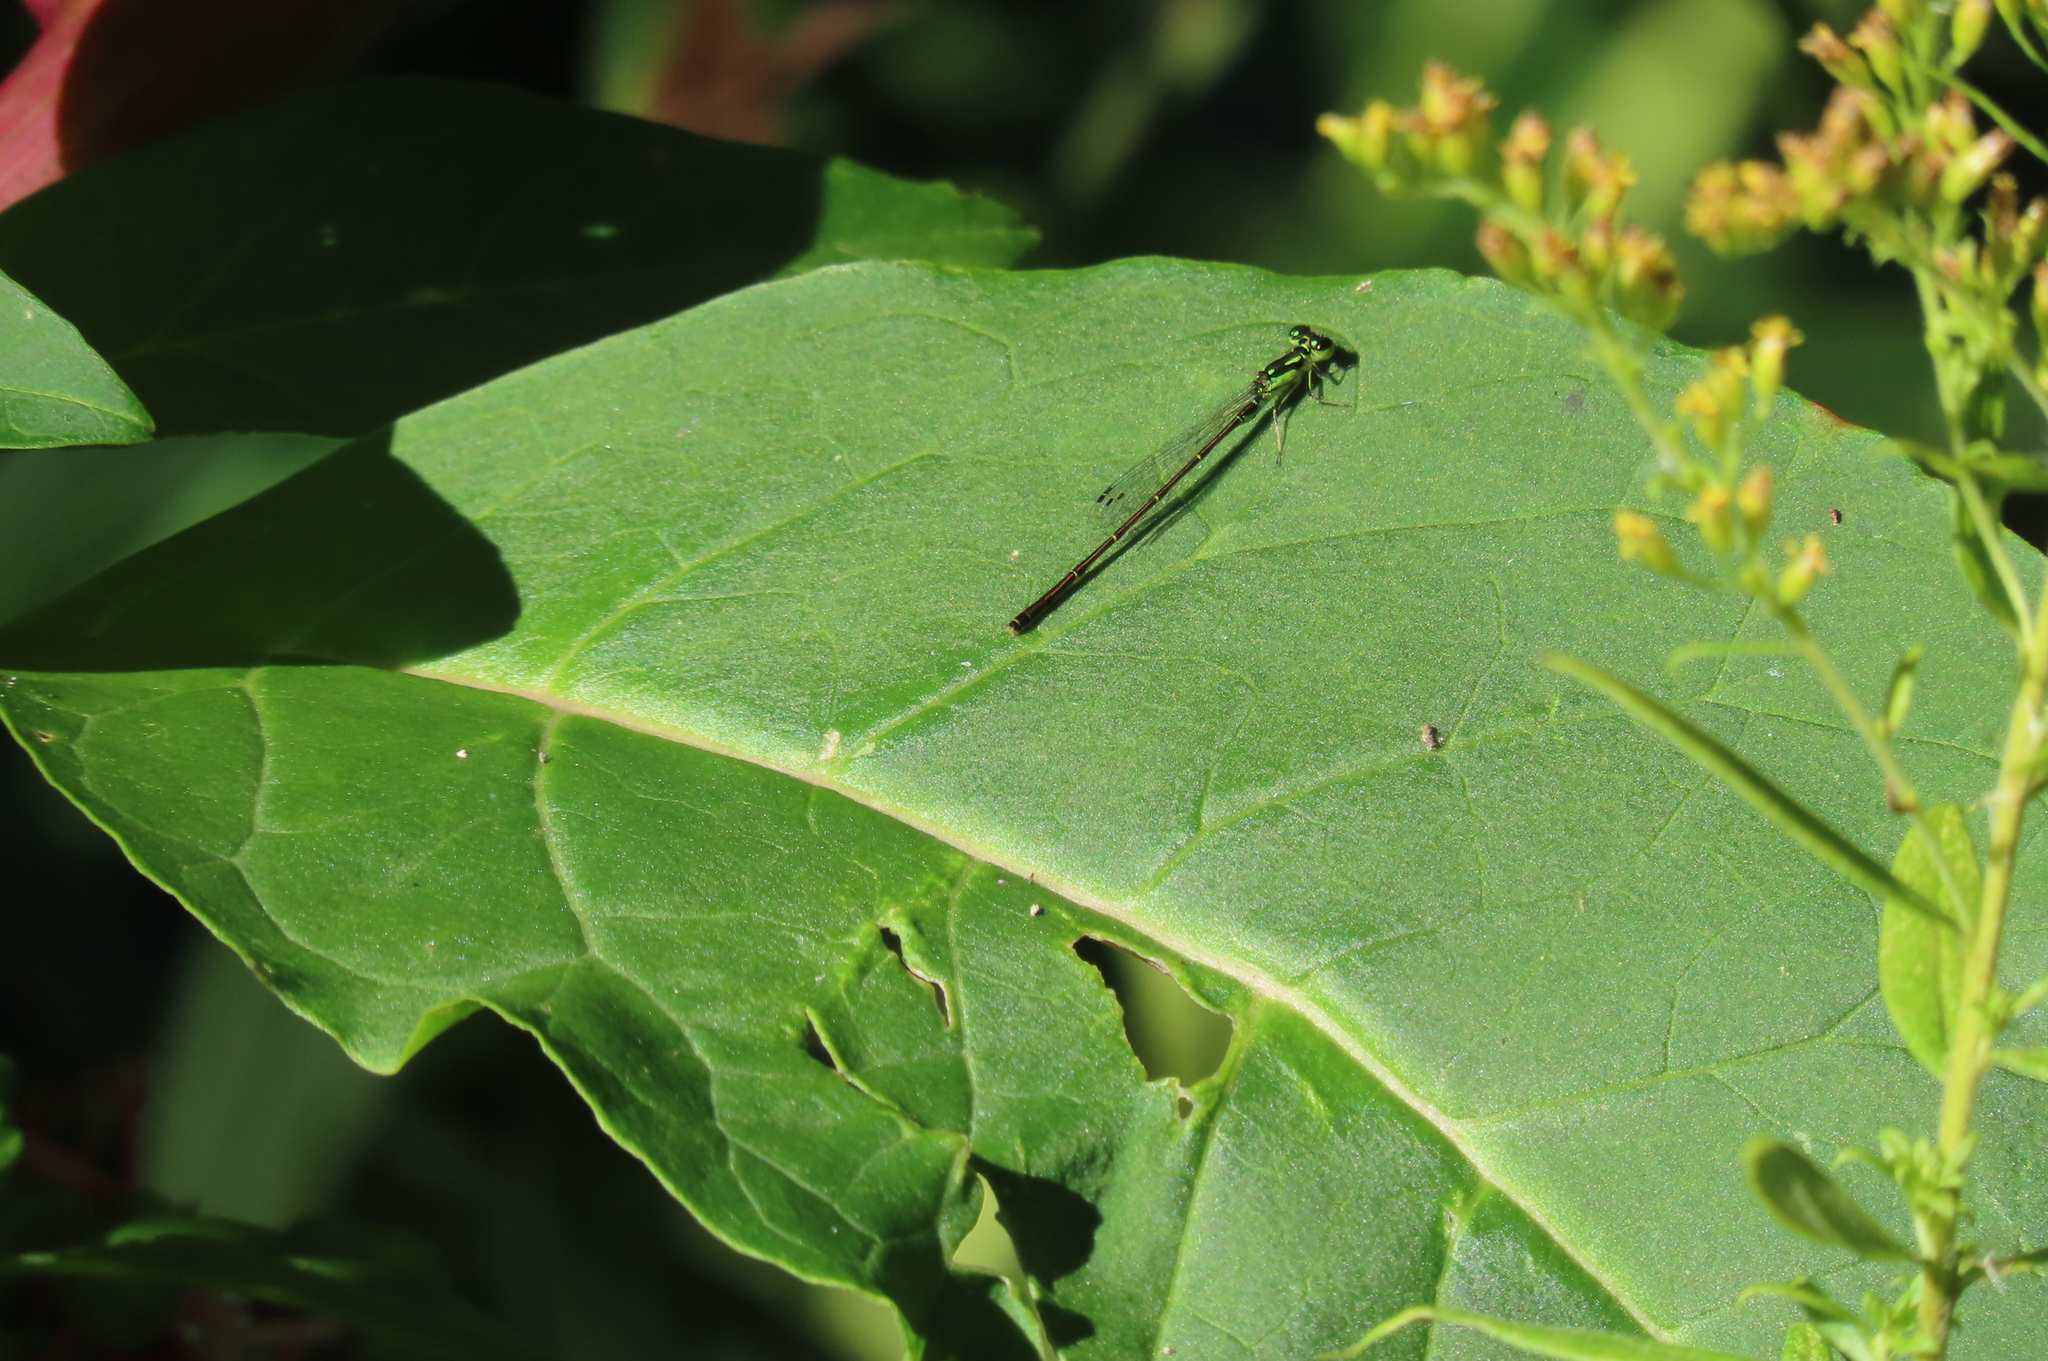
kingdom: Animalia
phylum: Arthropoda
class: Insecta
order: Odonata
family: Coenagrionidae
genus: Ischnura
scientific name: Ischnura posita
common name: Fragile forktail
